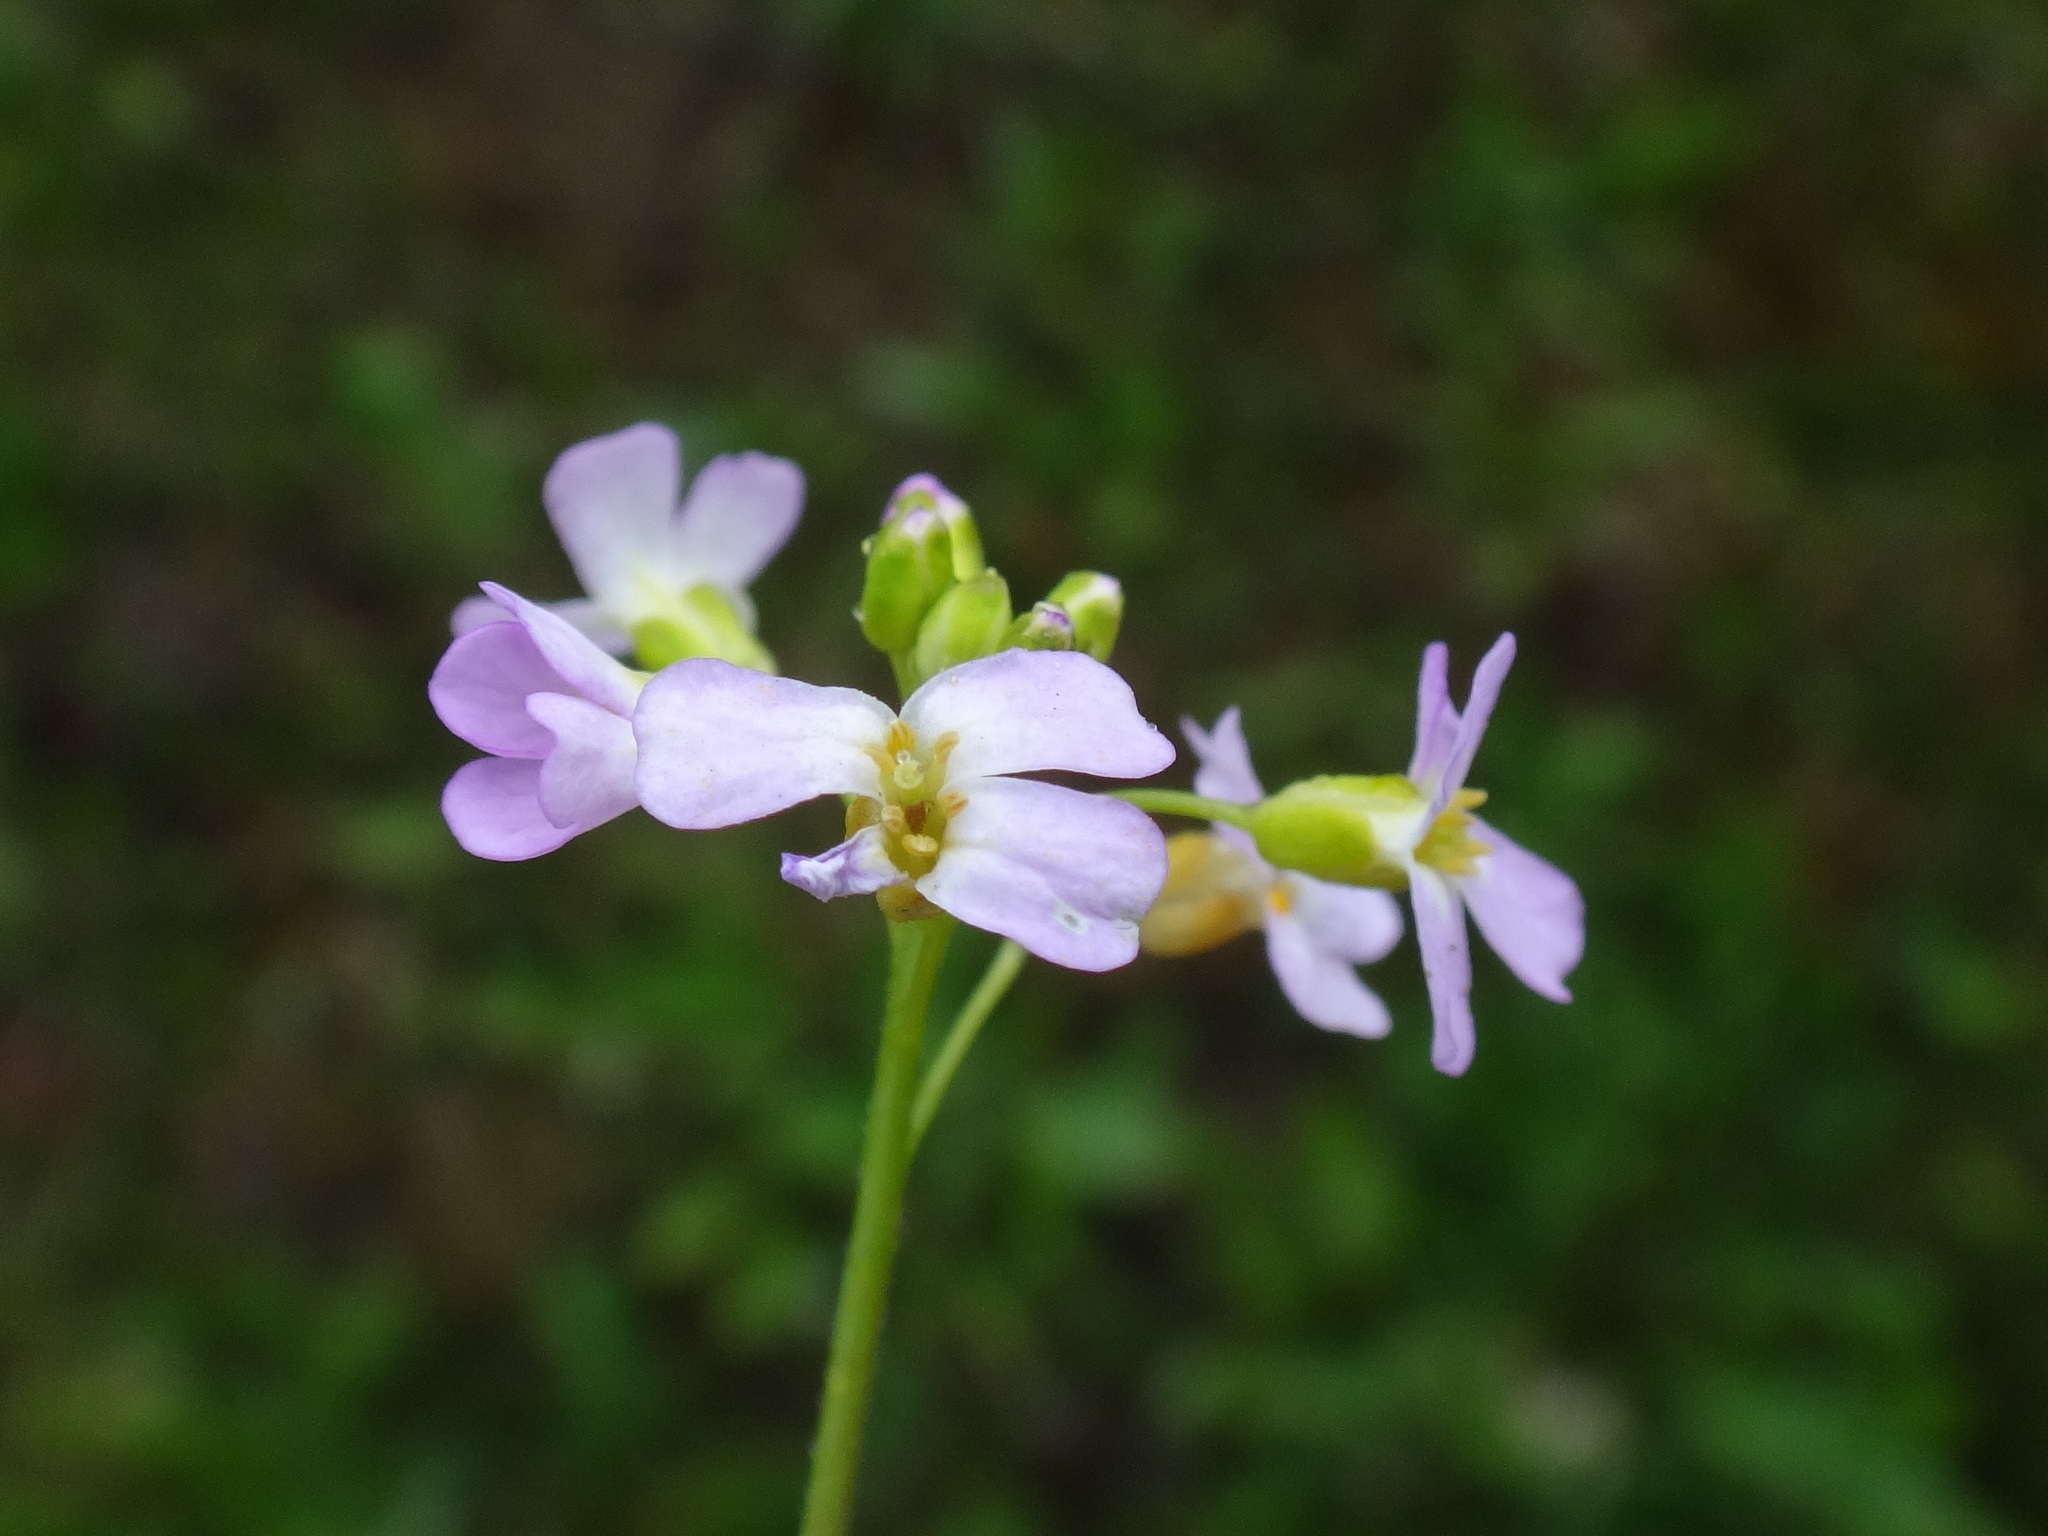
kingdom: Plantae
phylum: Tracheophyta
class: Magnoliopsida
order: Brassicales
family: Brassicaceae
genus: Arabidopsis
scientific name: Arabidopsis halleri
